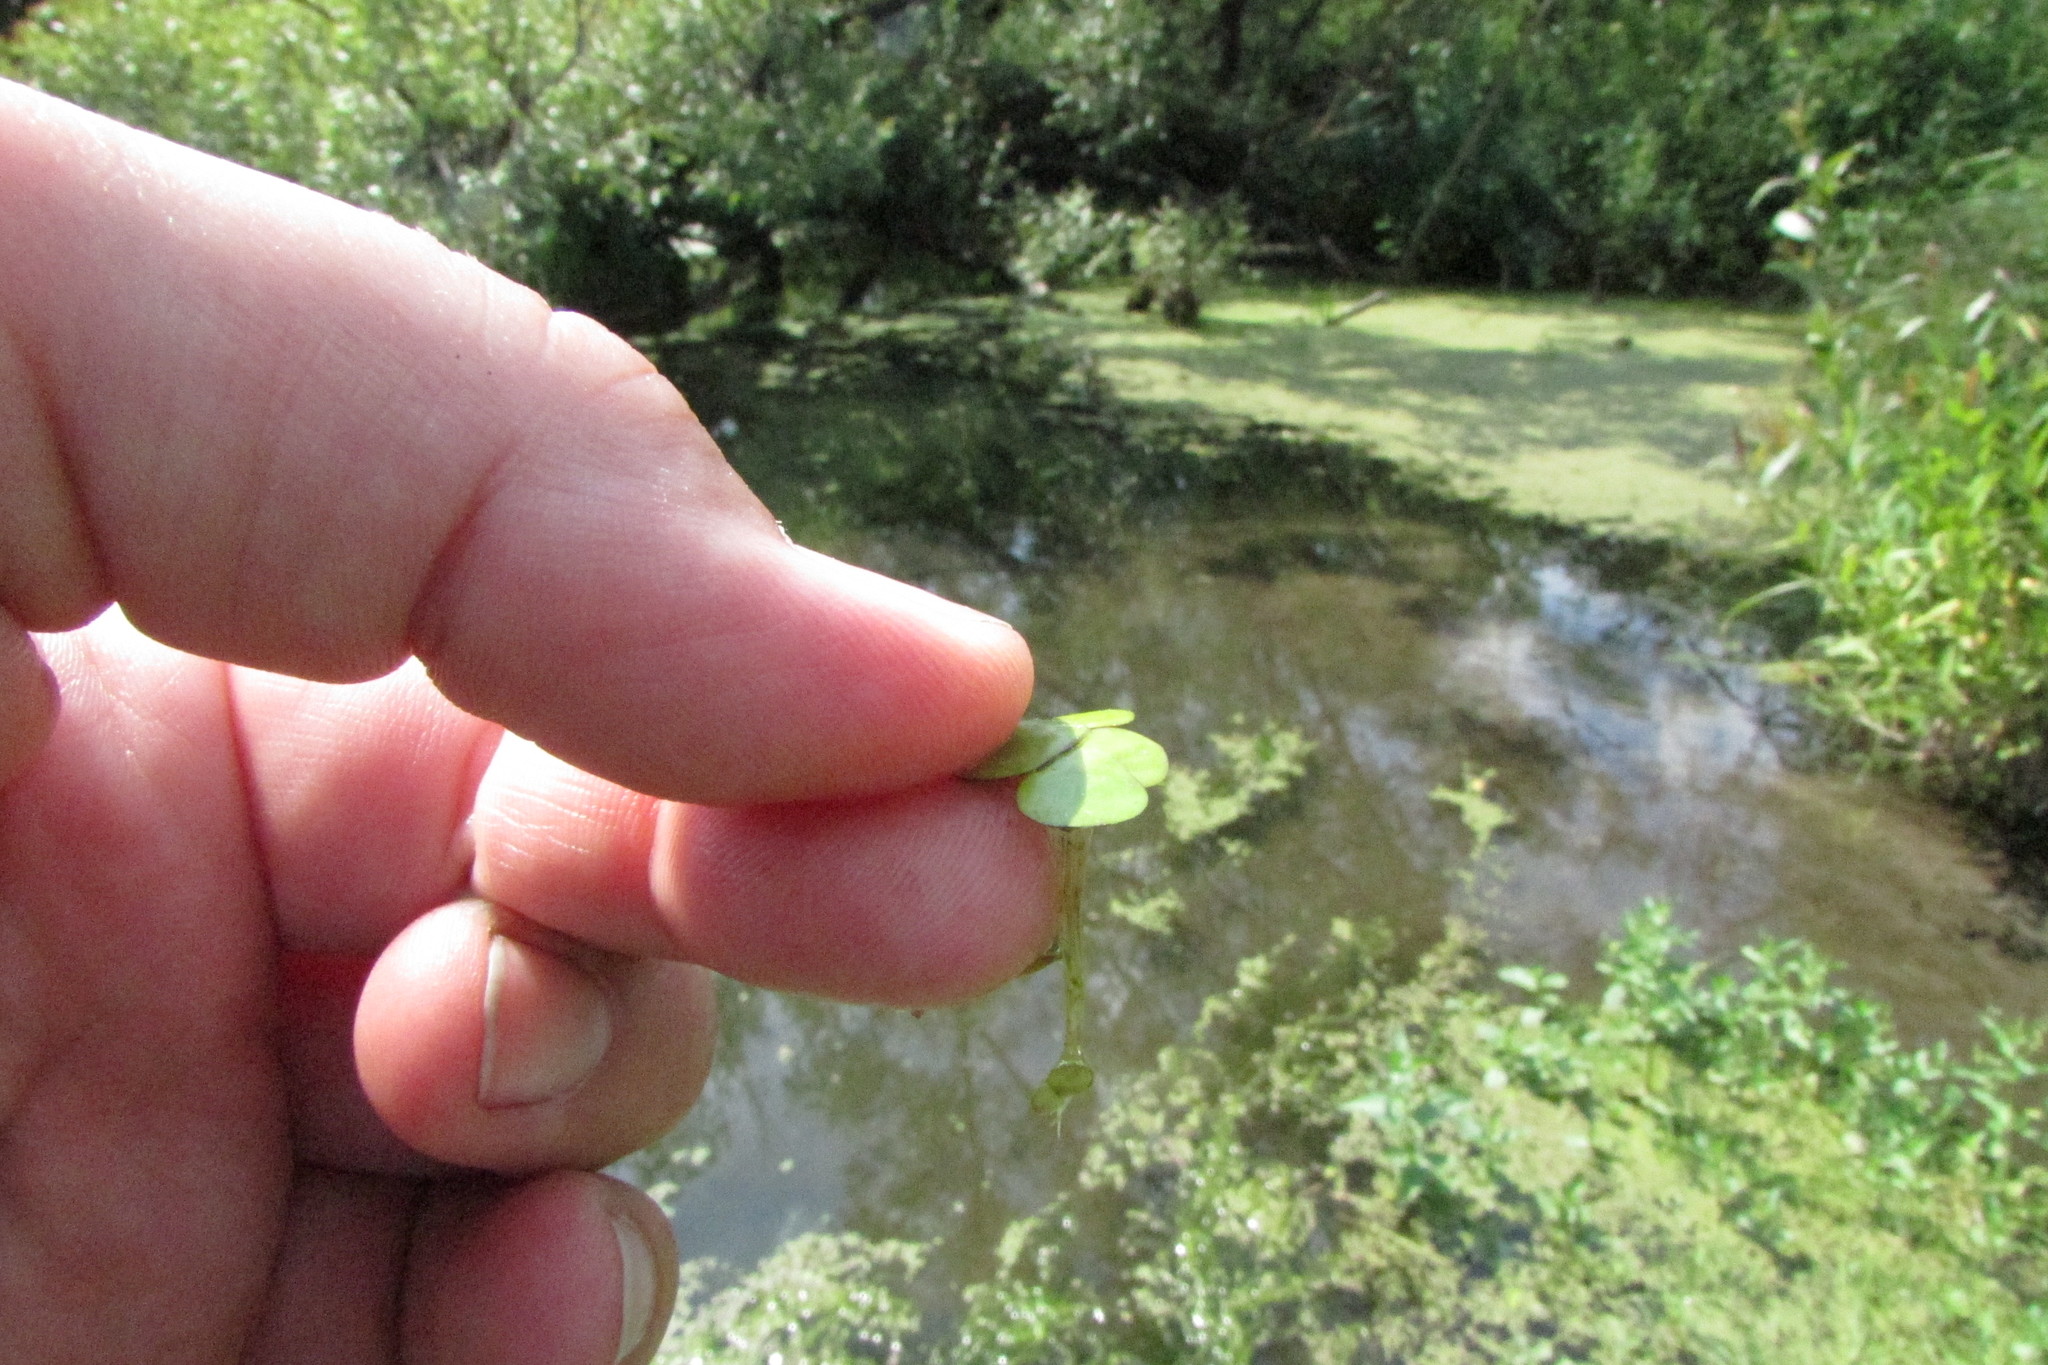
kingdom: Plantae
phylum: Tracheophyta
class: Liliopsida
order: Alismatales
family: Araceae
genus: Spirodela
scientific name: Spirodela polyrhiza
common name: Great duckweed
